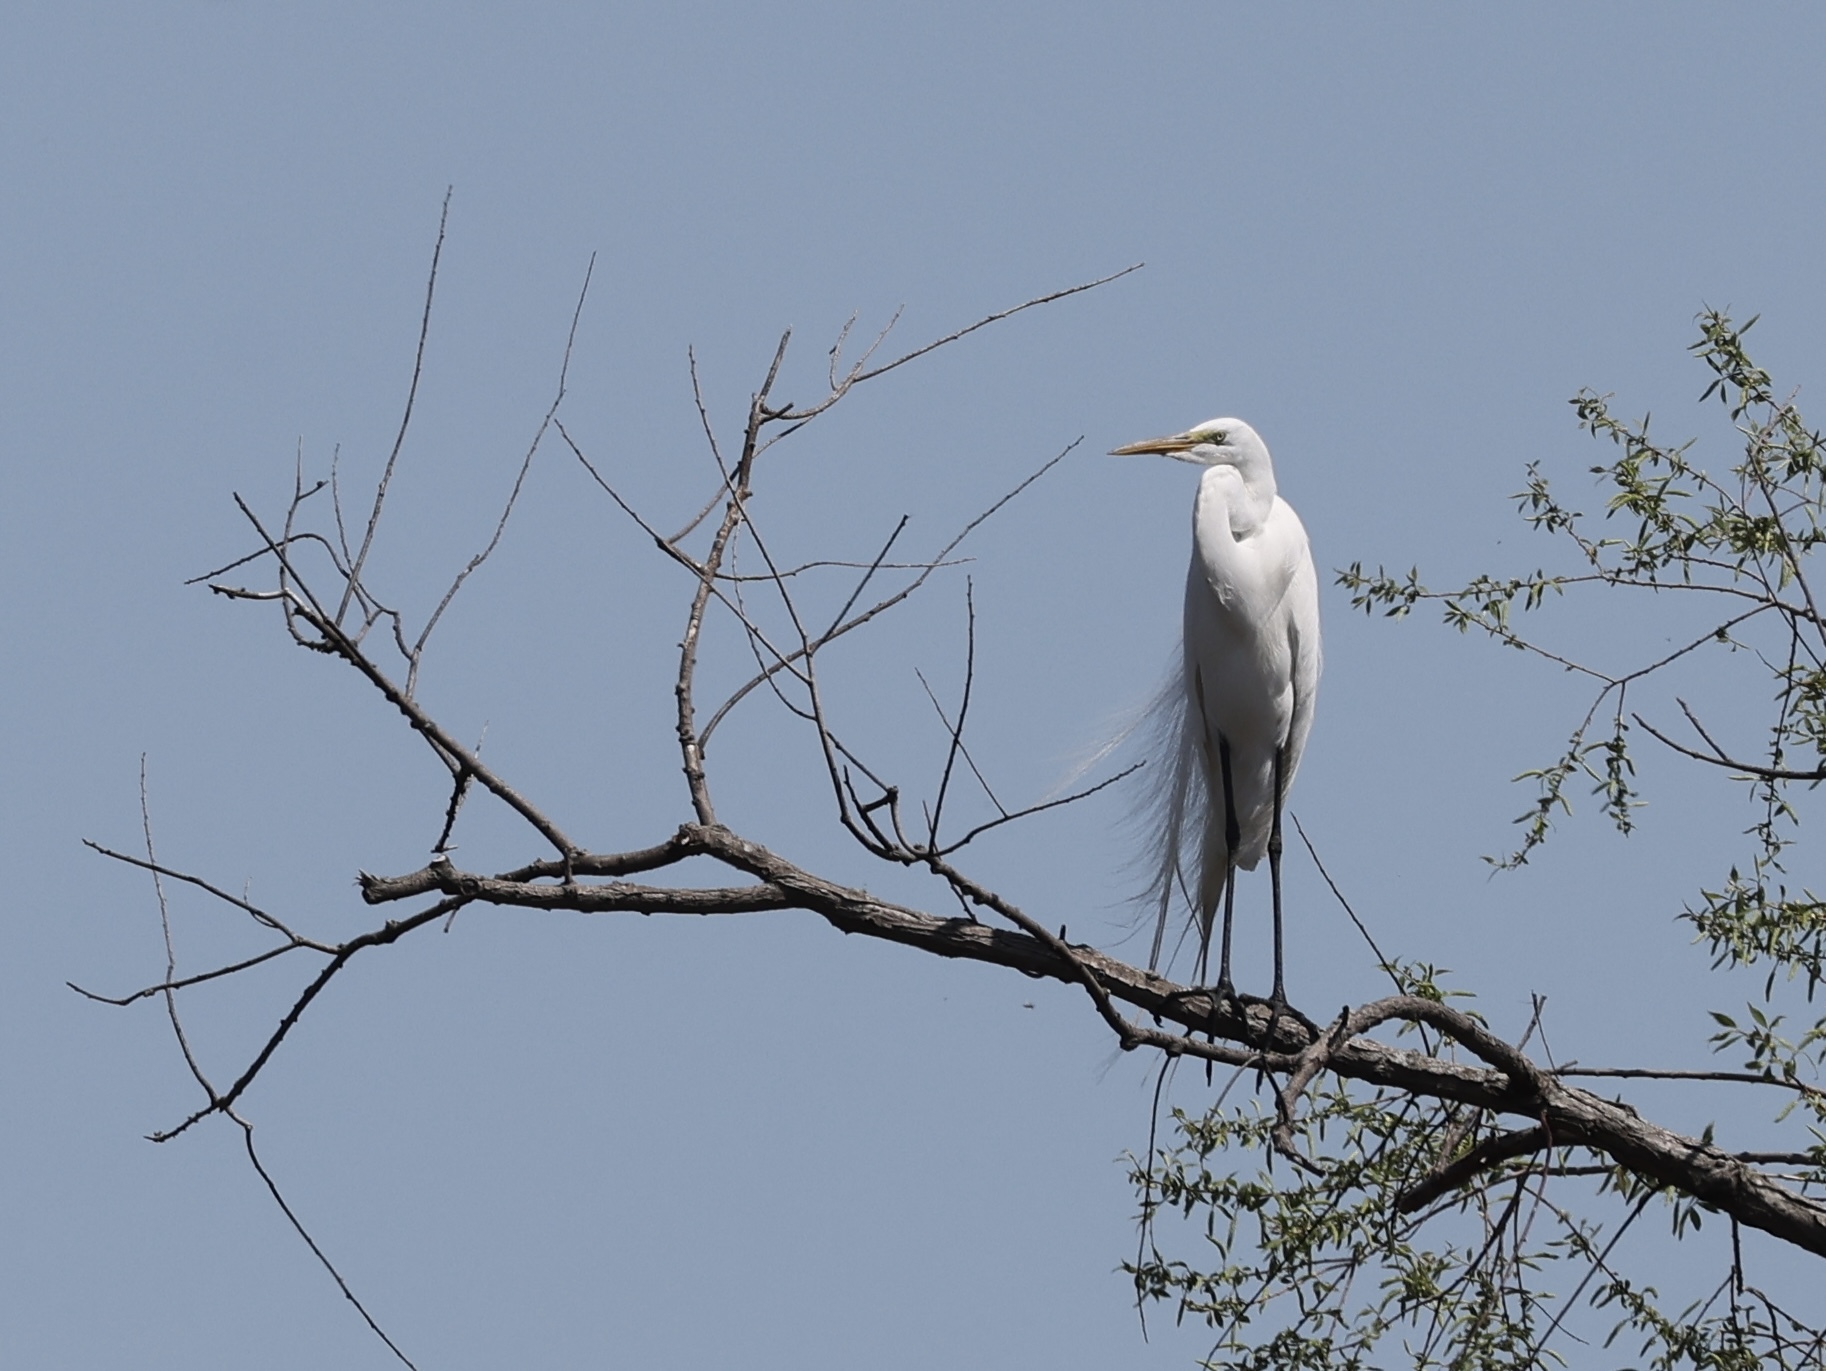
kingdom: Animalia
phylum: Chordata
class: Aves
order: Pelecaniformes
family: Ardeidae
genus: Ardea
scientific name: Ardea alba
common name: Great egret
